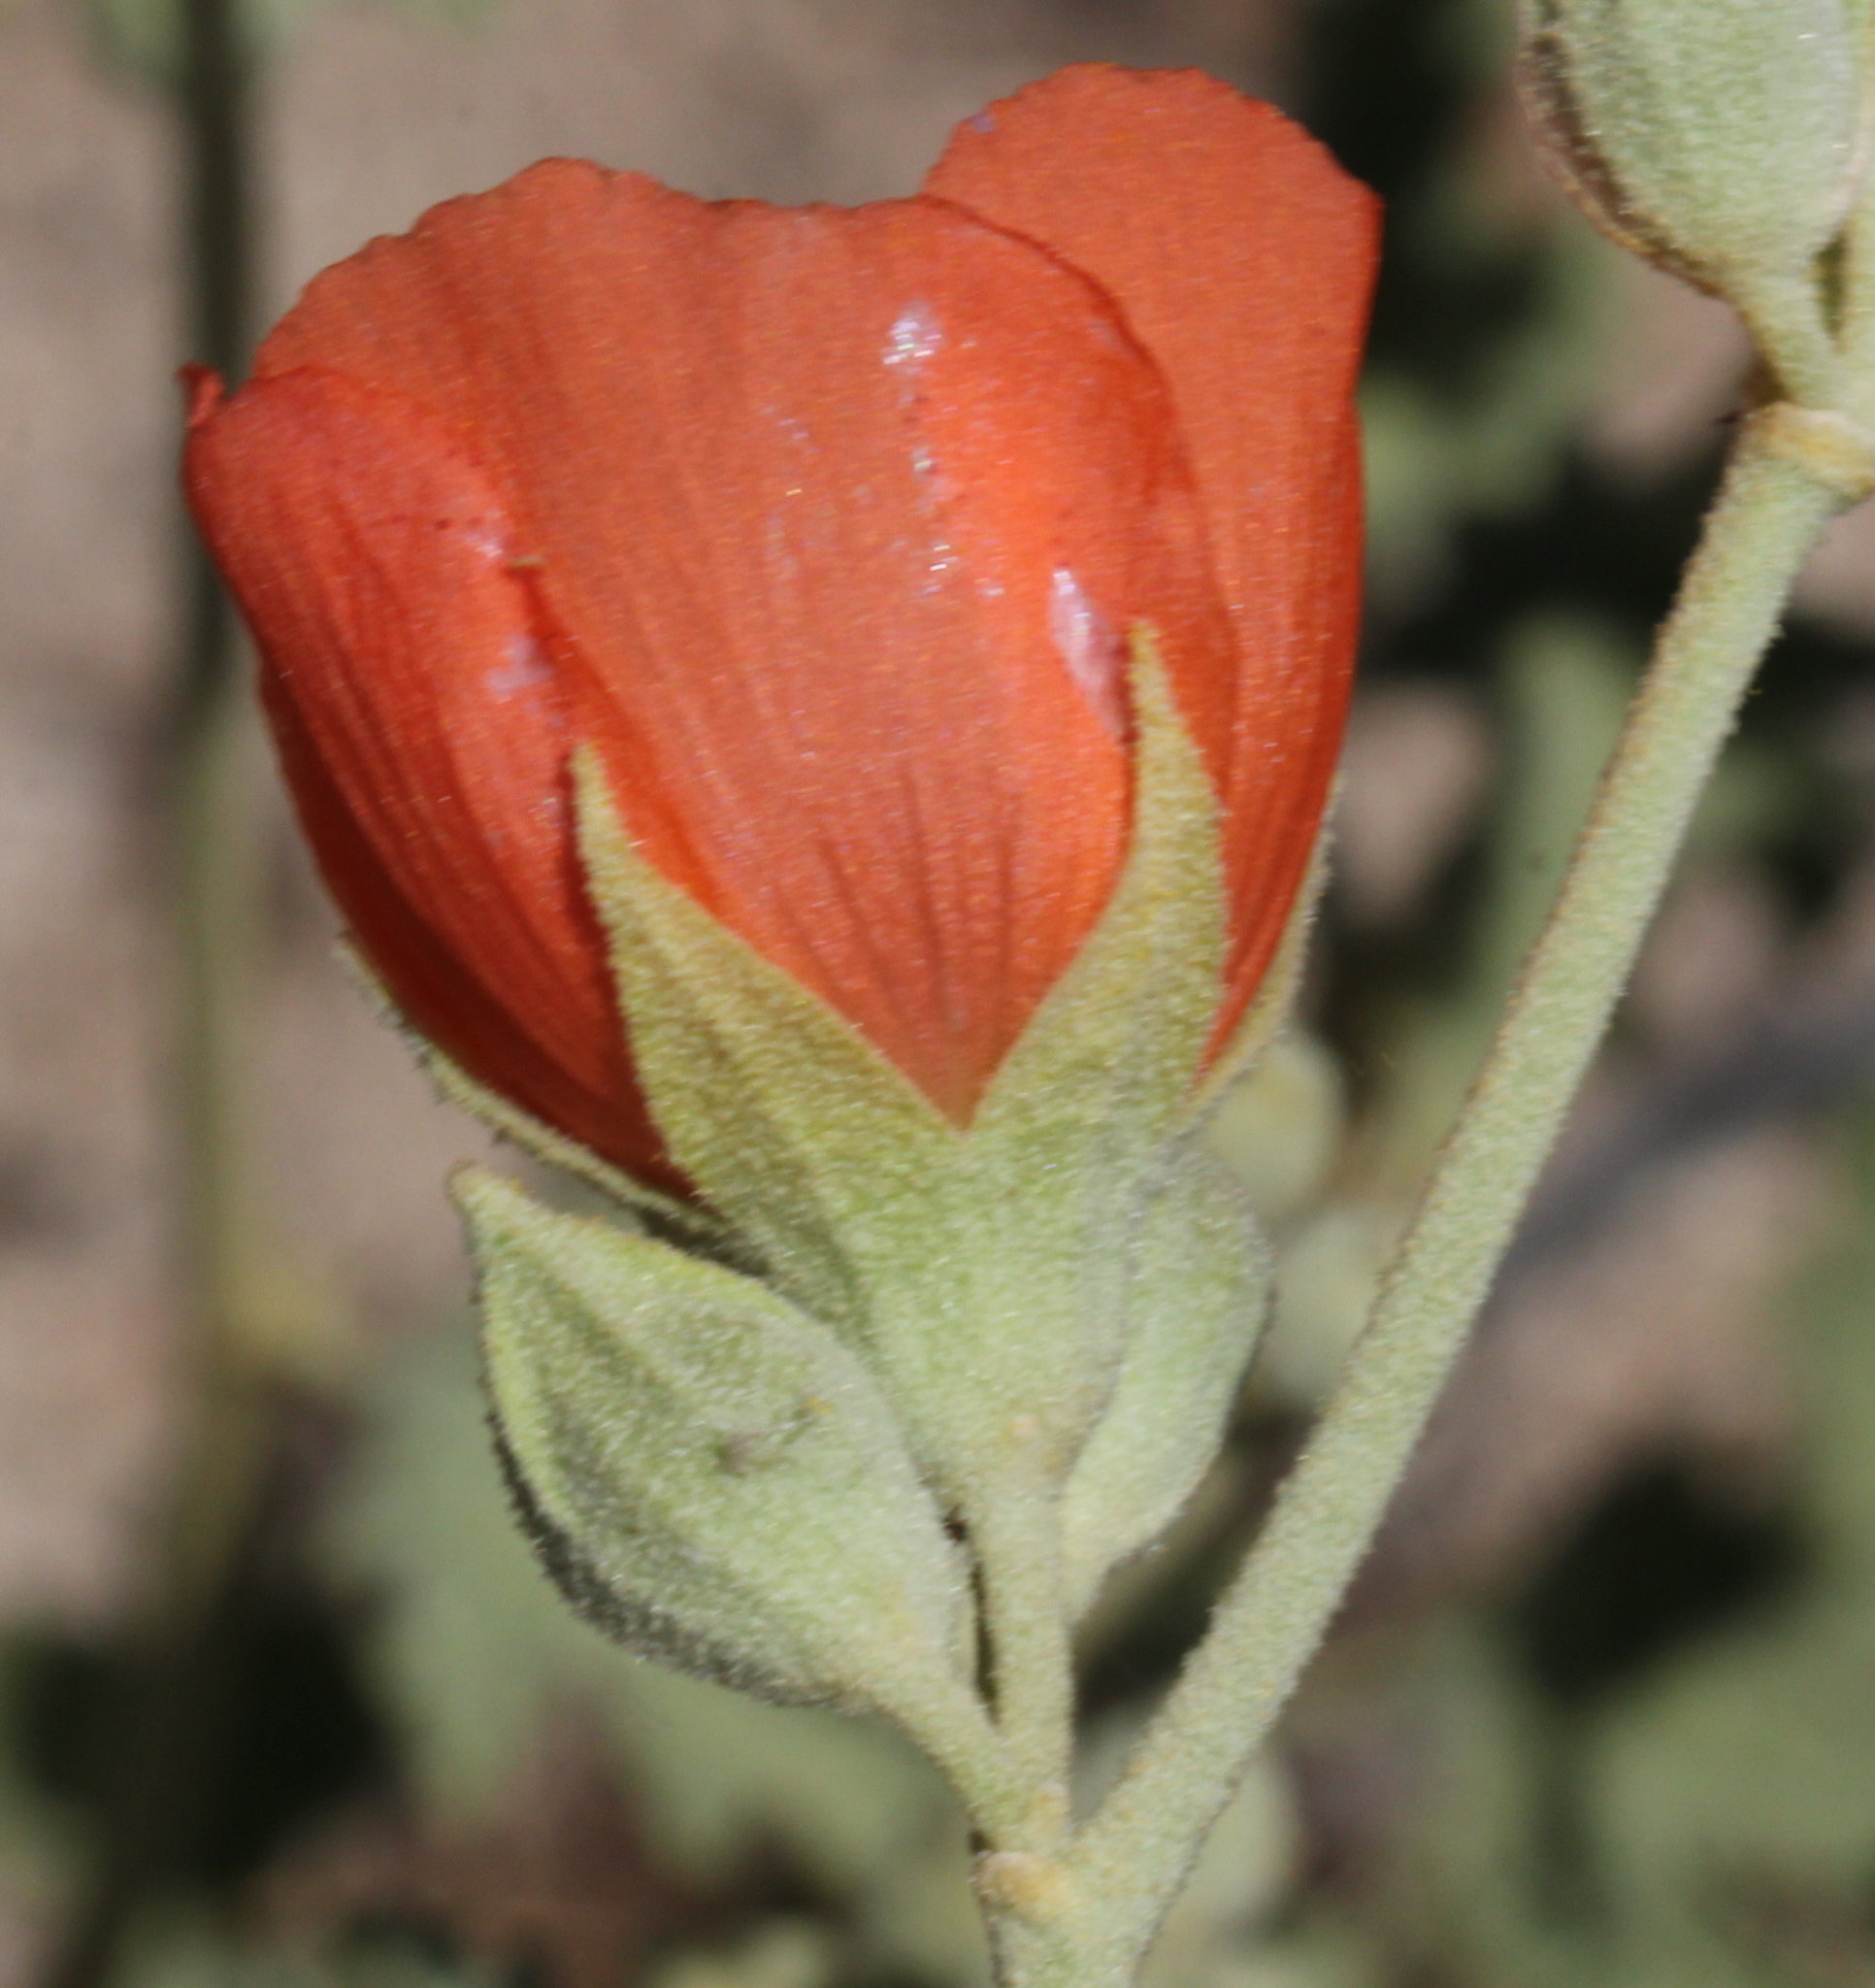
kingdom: Plantae
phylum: Tracheophyta
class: Magnoliopsida
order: Malvales
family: Malvaceae
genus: Sphaeralcea
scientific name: Sphaeralcea ambigua
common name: Apricot globe-mallow
